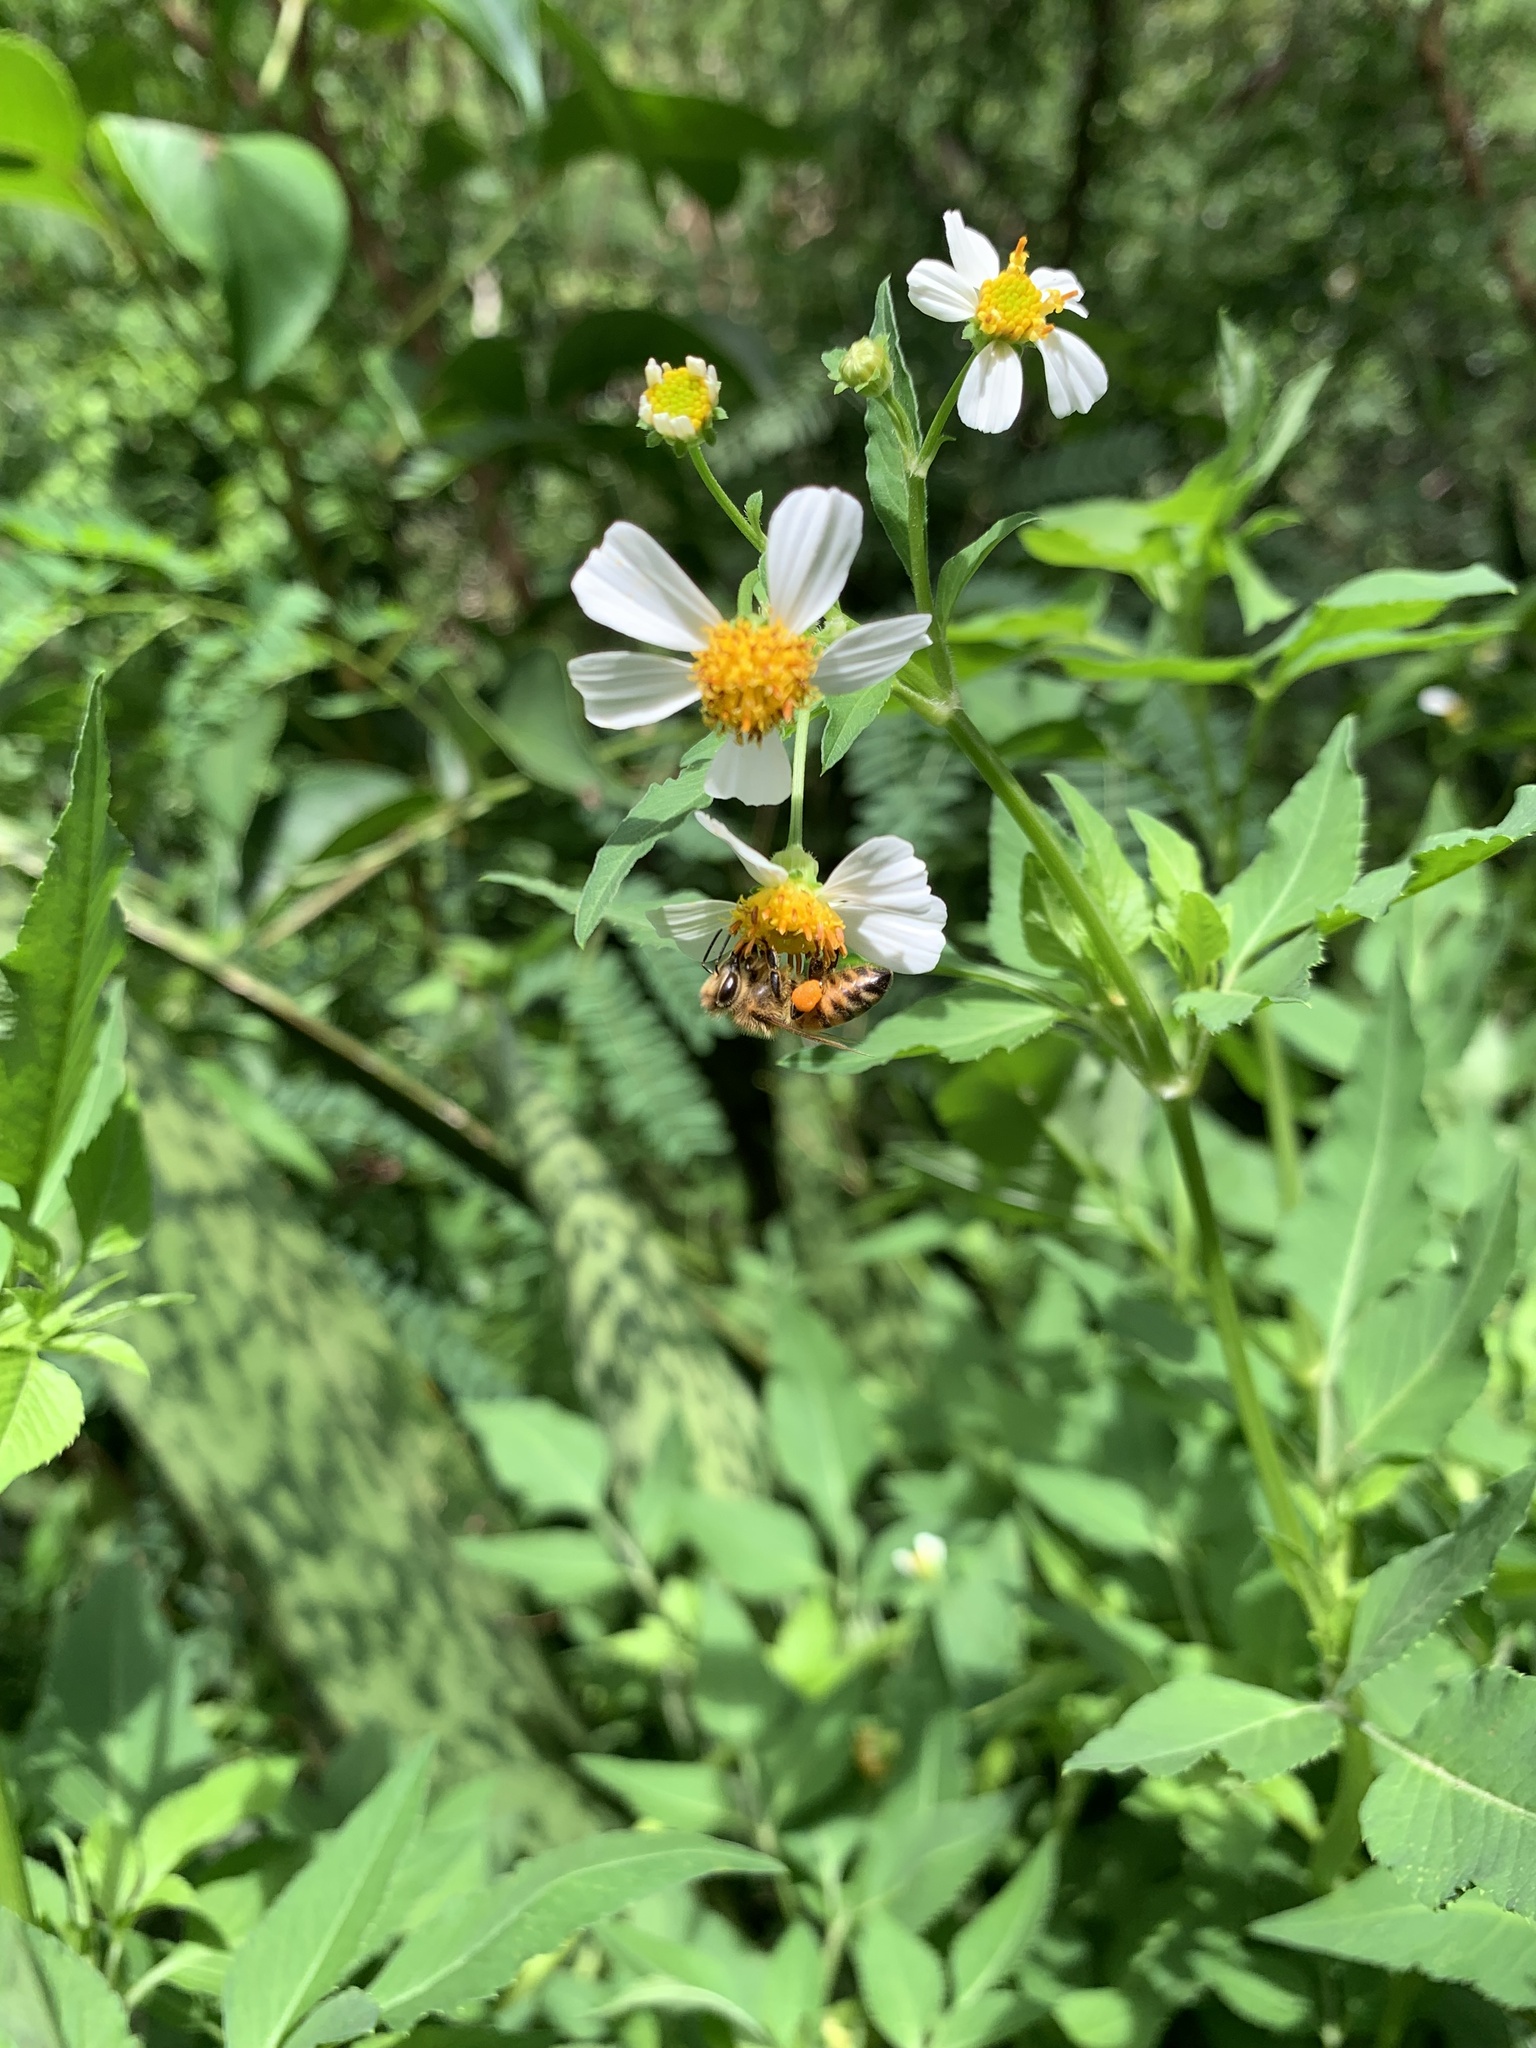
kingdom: Animalia
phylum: Arthropoda
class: Insecta
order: Hymenoptera
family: Apidae
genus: Apis
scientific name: Apis mellifera
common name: Honey bee
